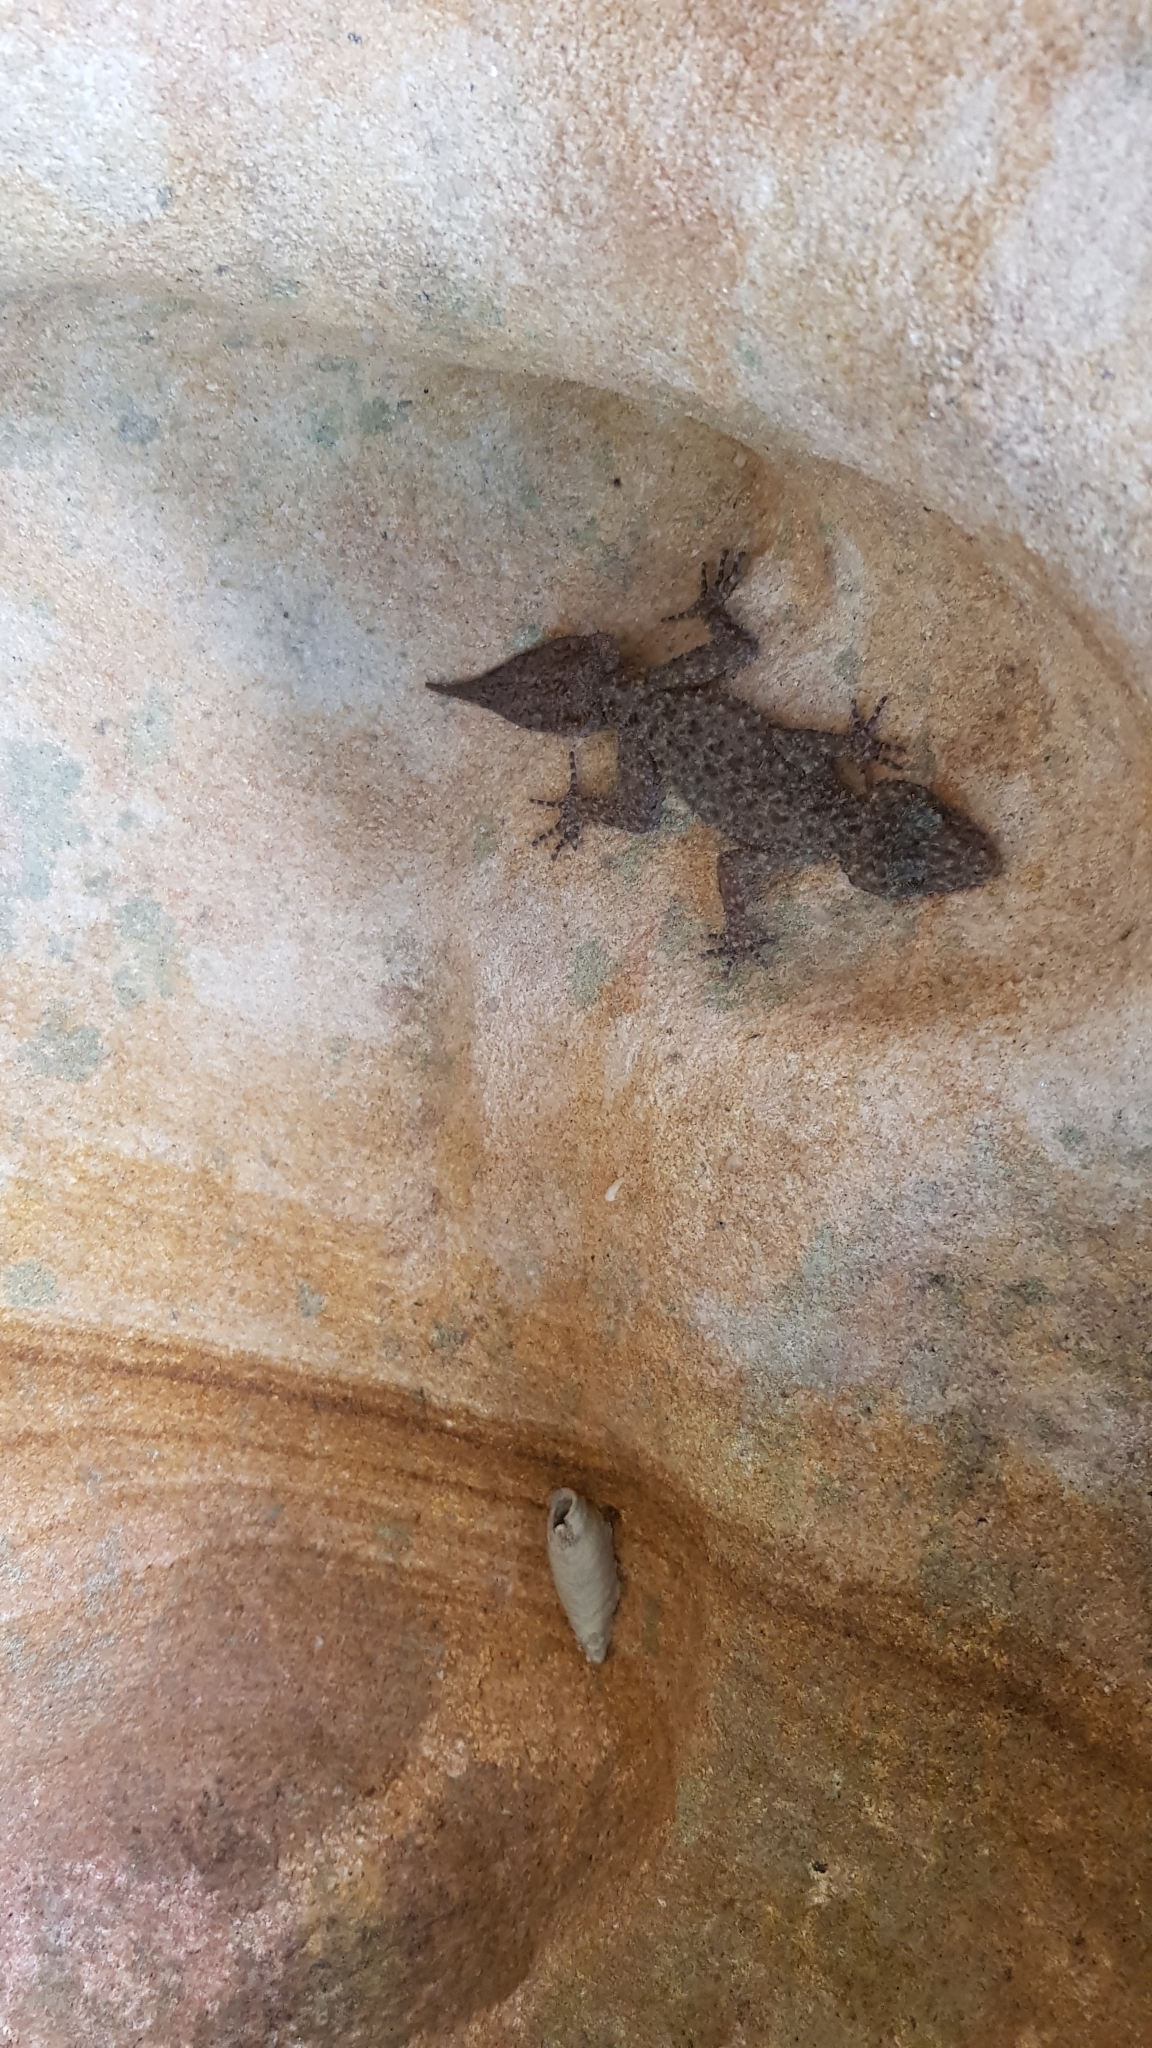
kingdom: Animalia
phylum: Chordata
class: Squamata
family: Carphodactylidae
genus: Phyllurus
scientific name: Phyllurus platurus
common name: Broad-tailed gecko
